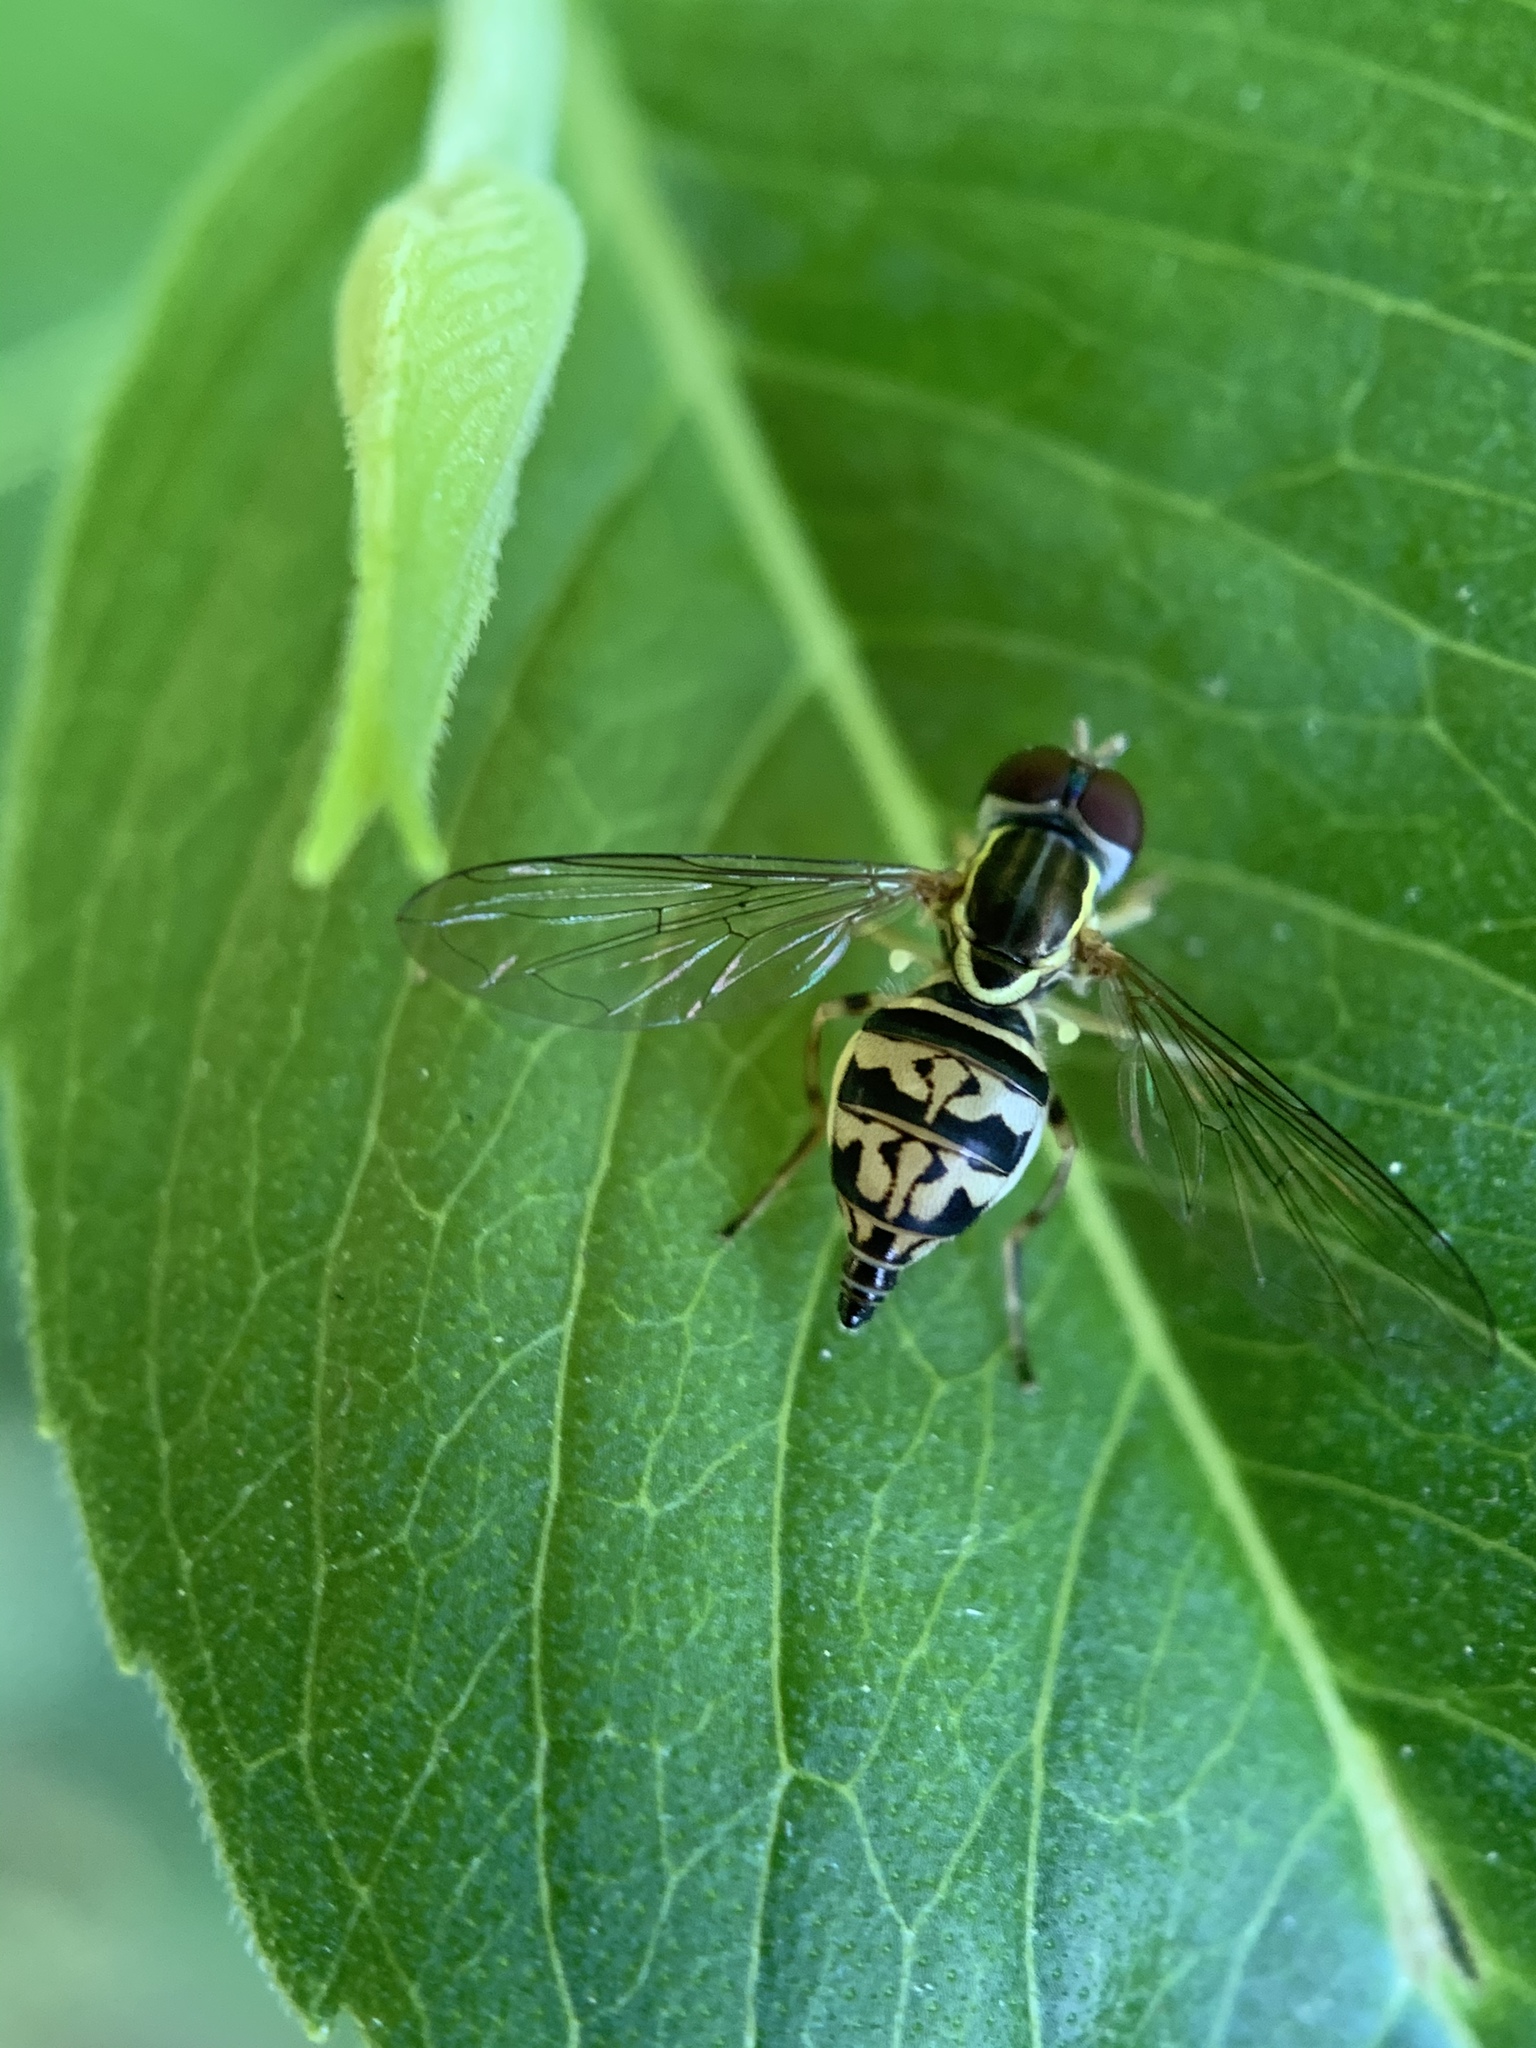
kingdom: Animalia
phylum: Arthropoda
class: Insecta
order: Diptera
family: Syrphidae
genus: Toxomerus
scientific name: Toxomerus geminatus
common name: Eastern calligrapher
